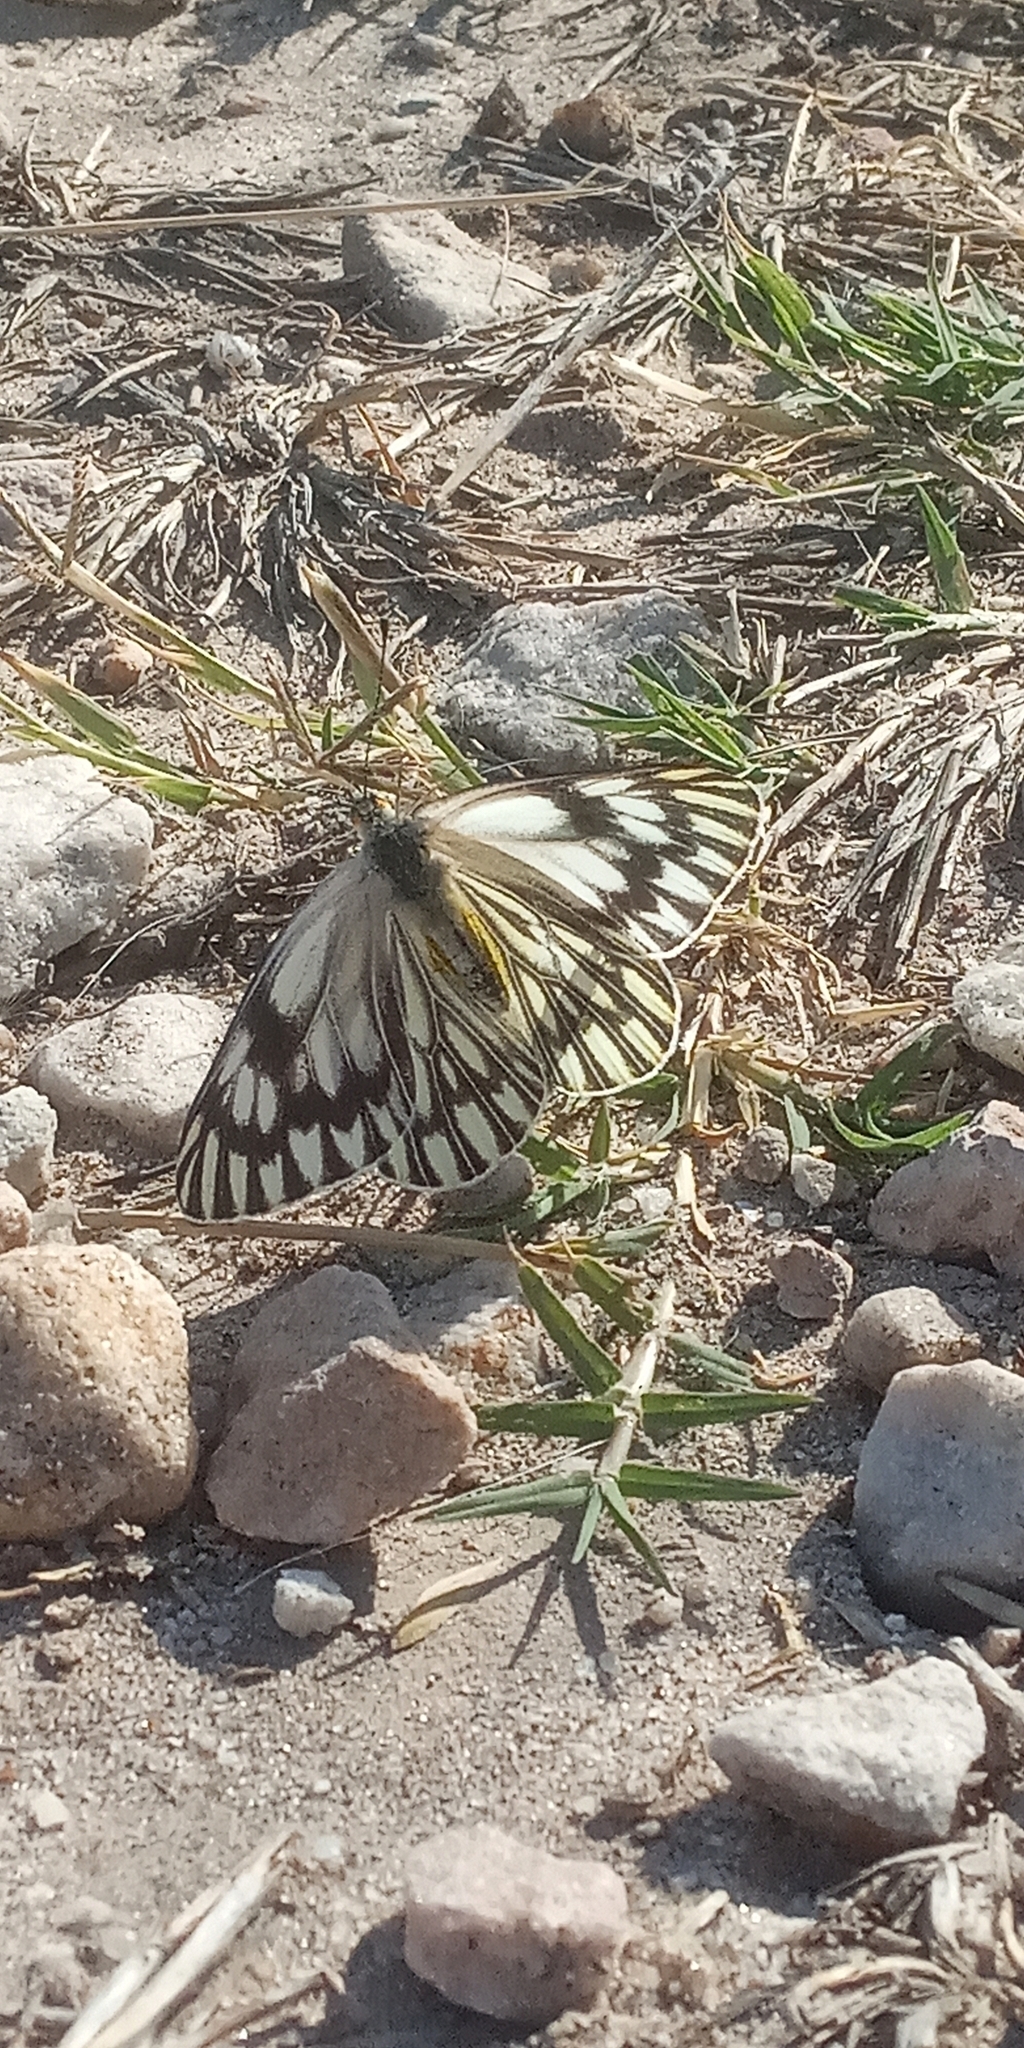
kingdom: Animalia
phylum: Arthropoda
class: Insecta
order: Lepidoptera
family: Pieridae
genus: Tatochila
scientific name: Tatochila mercedis
